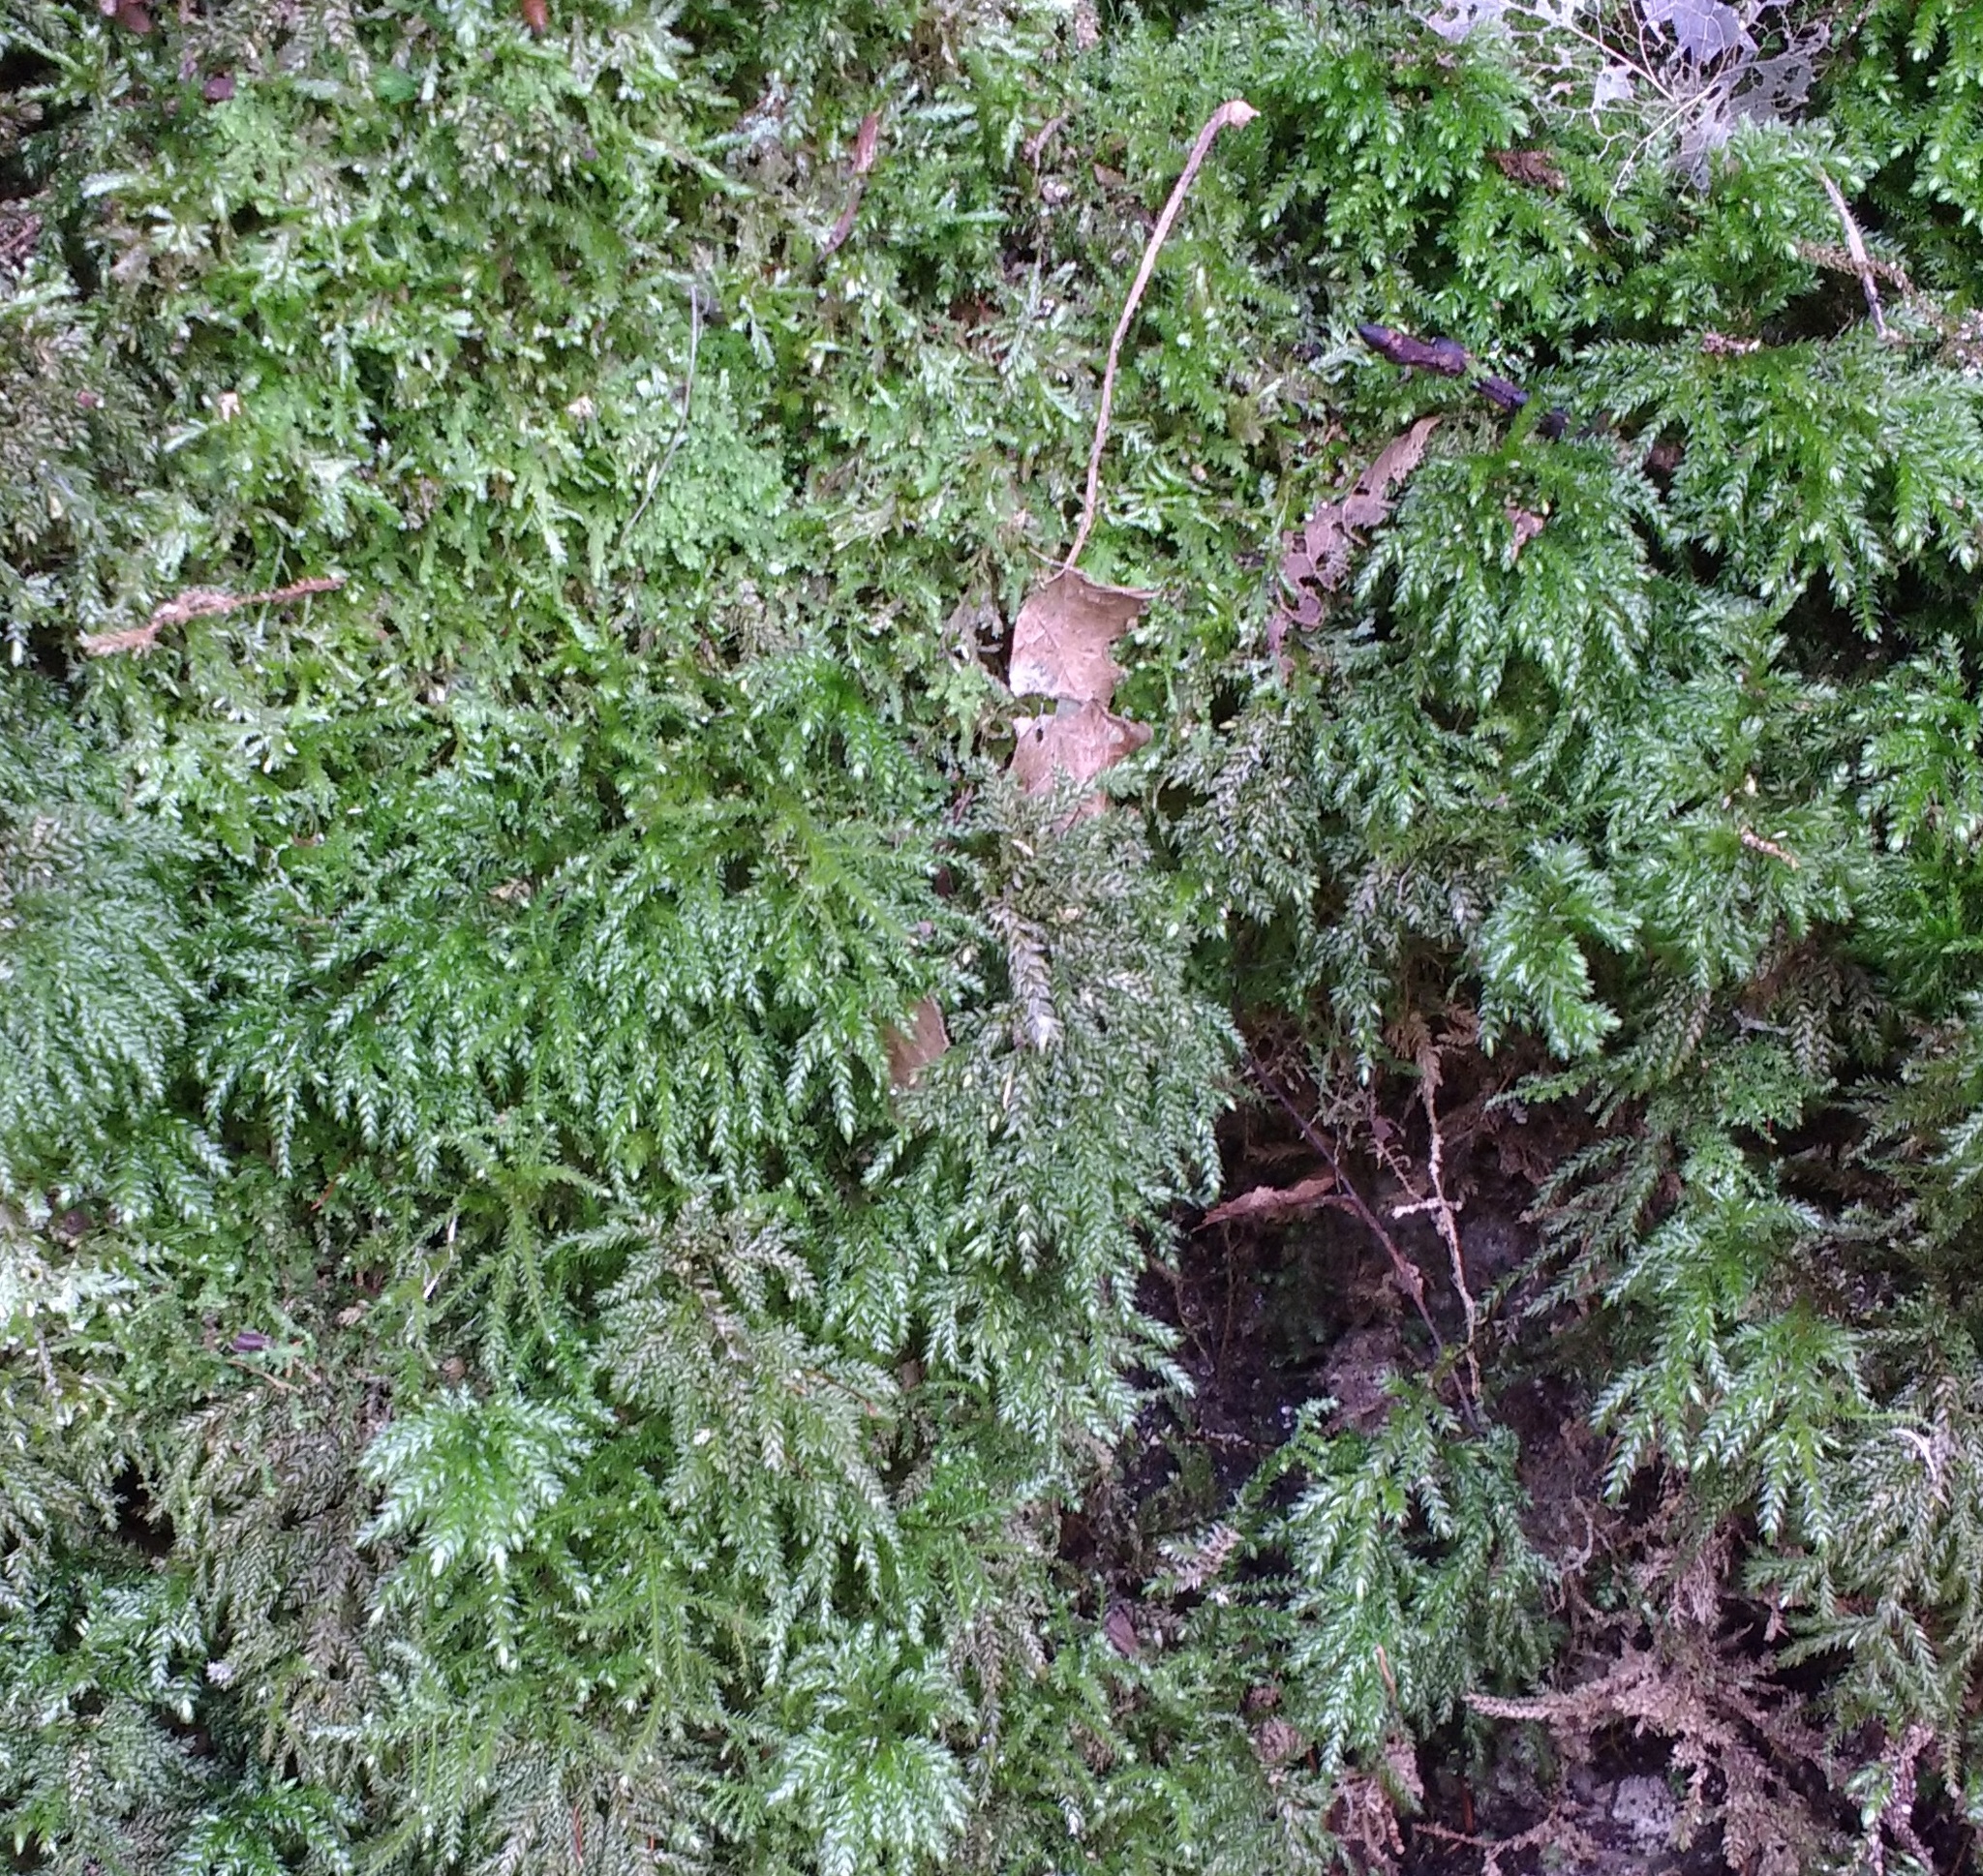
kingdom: Plantae
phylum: Bryophyta
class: Bryopsida
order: Hypnales
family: Neckeraceae
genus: Thamnobryum
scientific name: Thamnobryum alopecurum
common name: Fox-tail feather-moss
